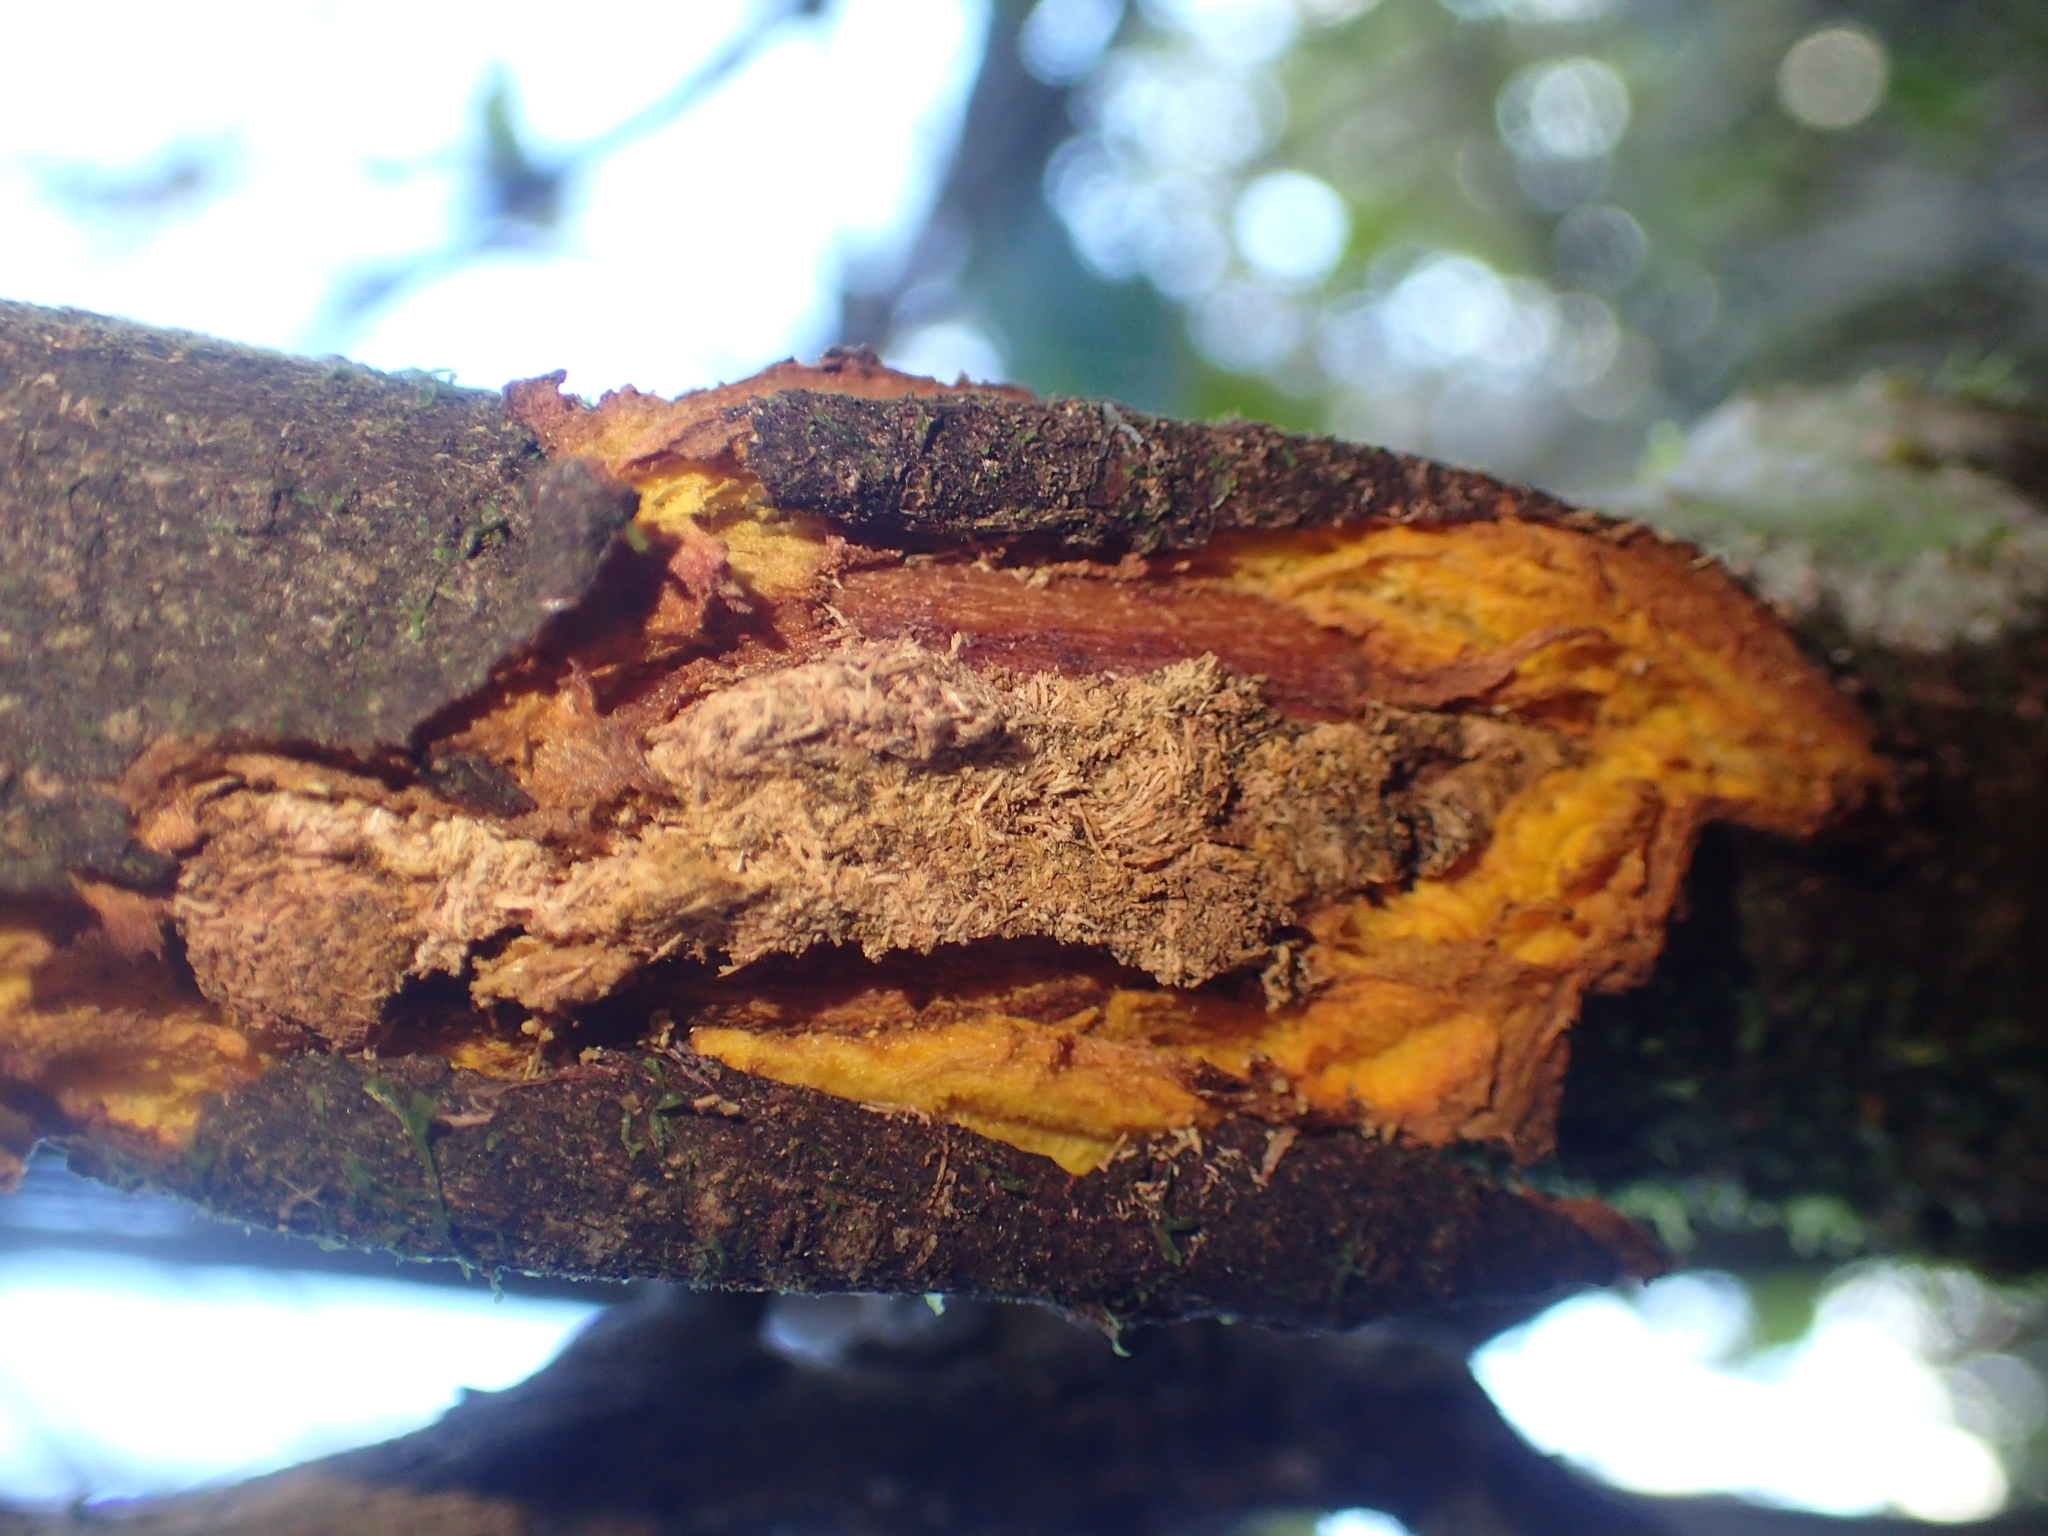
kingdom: Plantae
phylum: Tracheophyta
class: Magnoliopsida
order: Gentianales
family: Rubiaceae
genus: Coprosma
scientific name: Coprosma autumnalis
